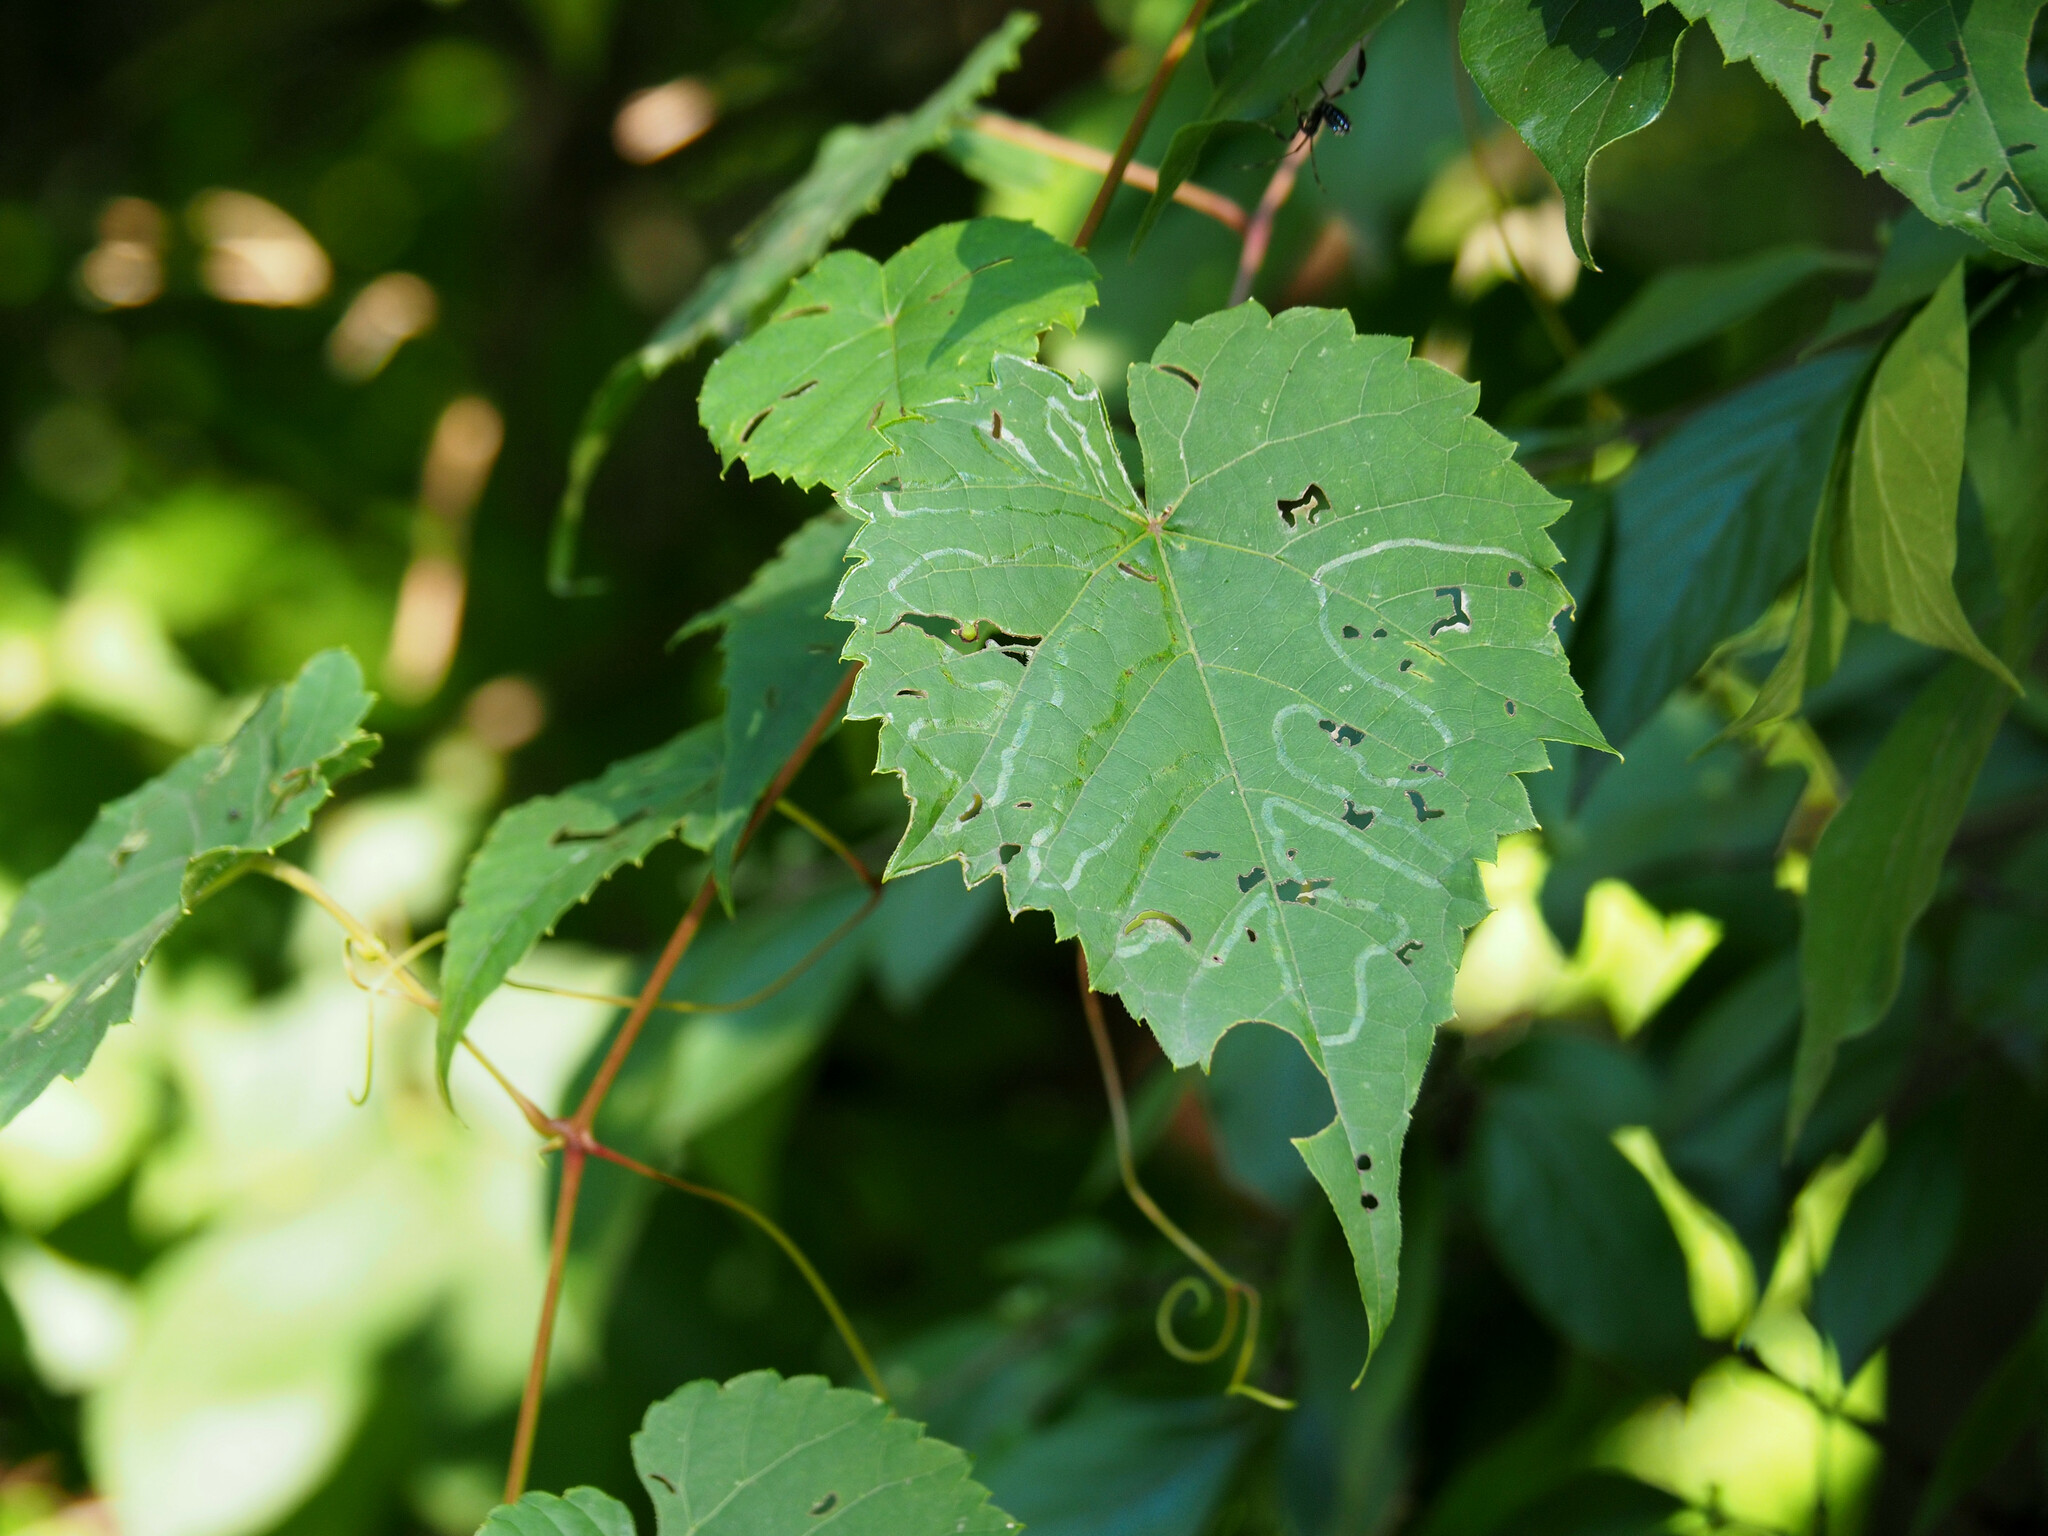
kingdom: Animalia
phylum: Arthropoda
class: Insecta
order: Lepidoptera
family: Gracillariidae
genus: Phyllocnistis
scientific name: Phyllocnistis vitegenella
